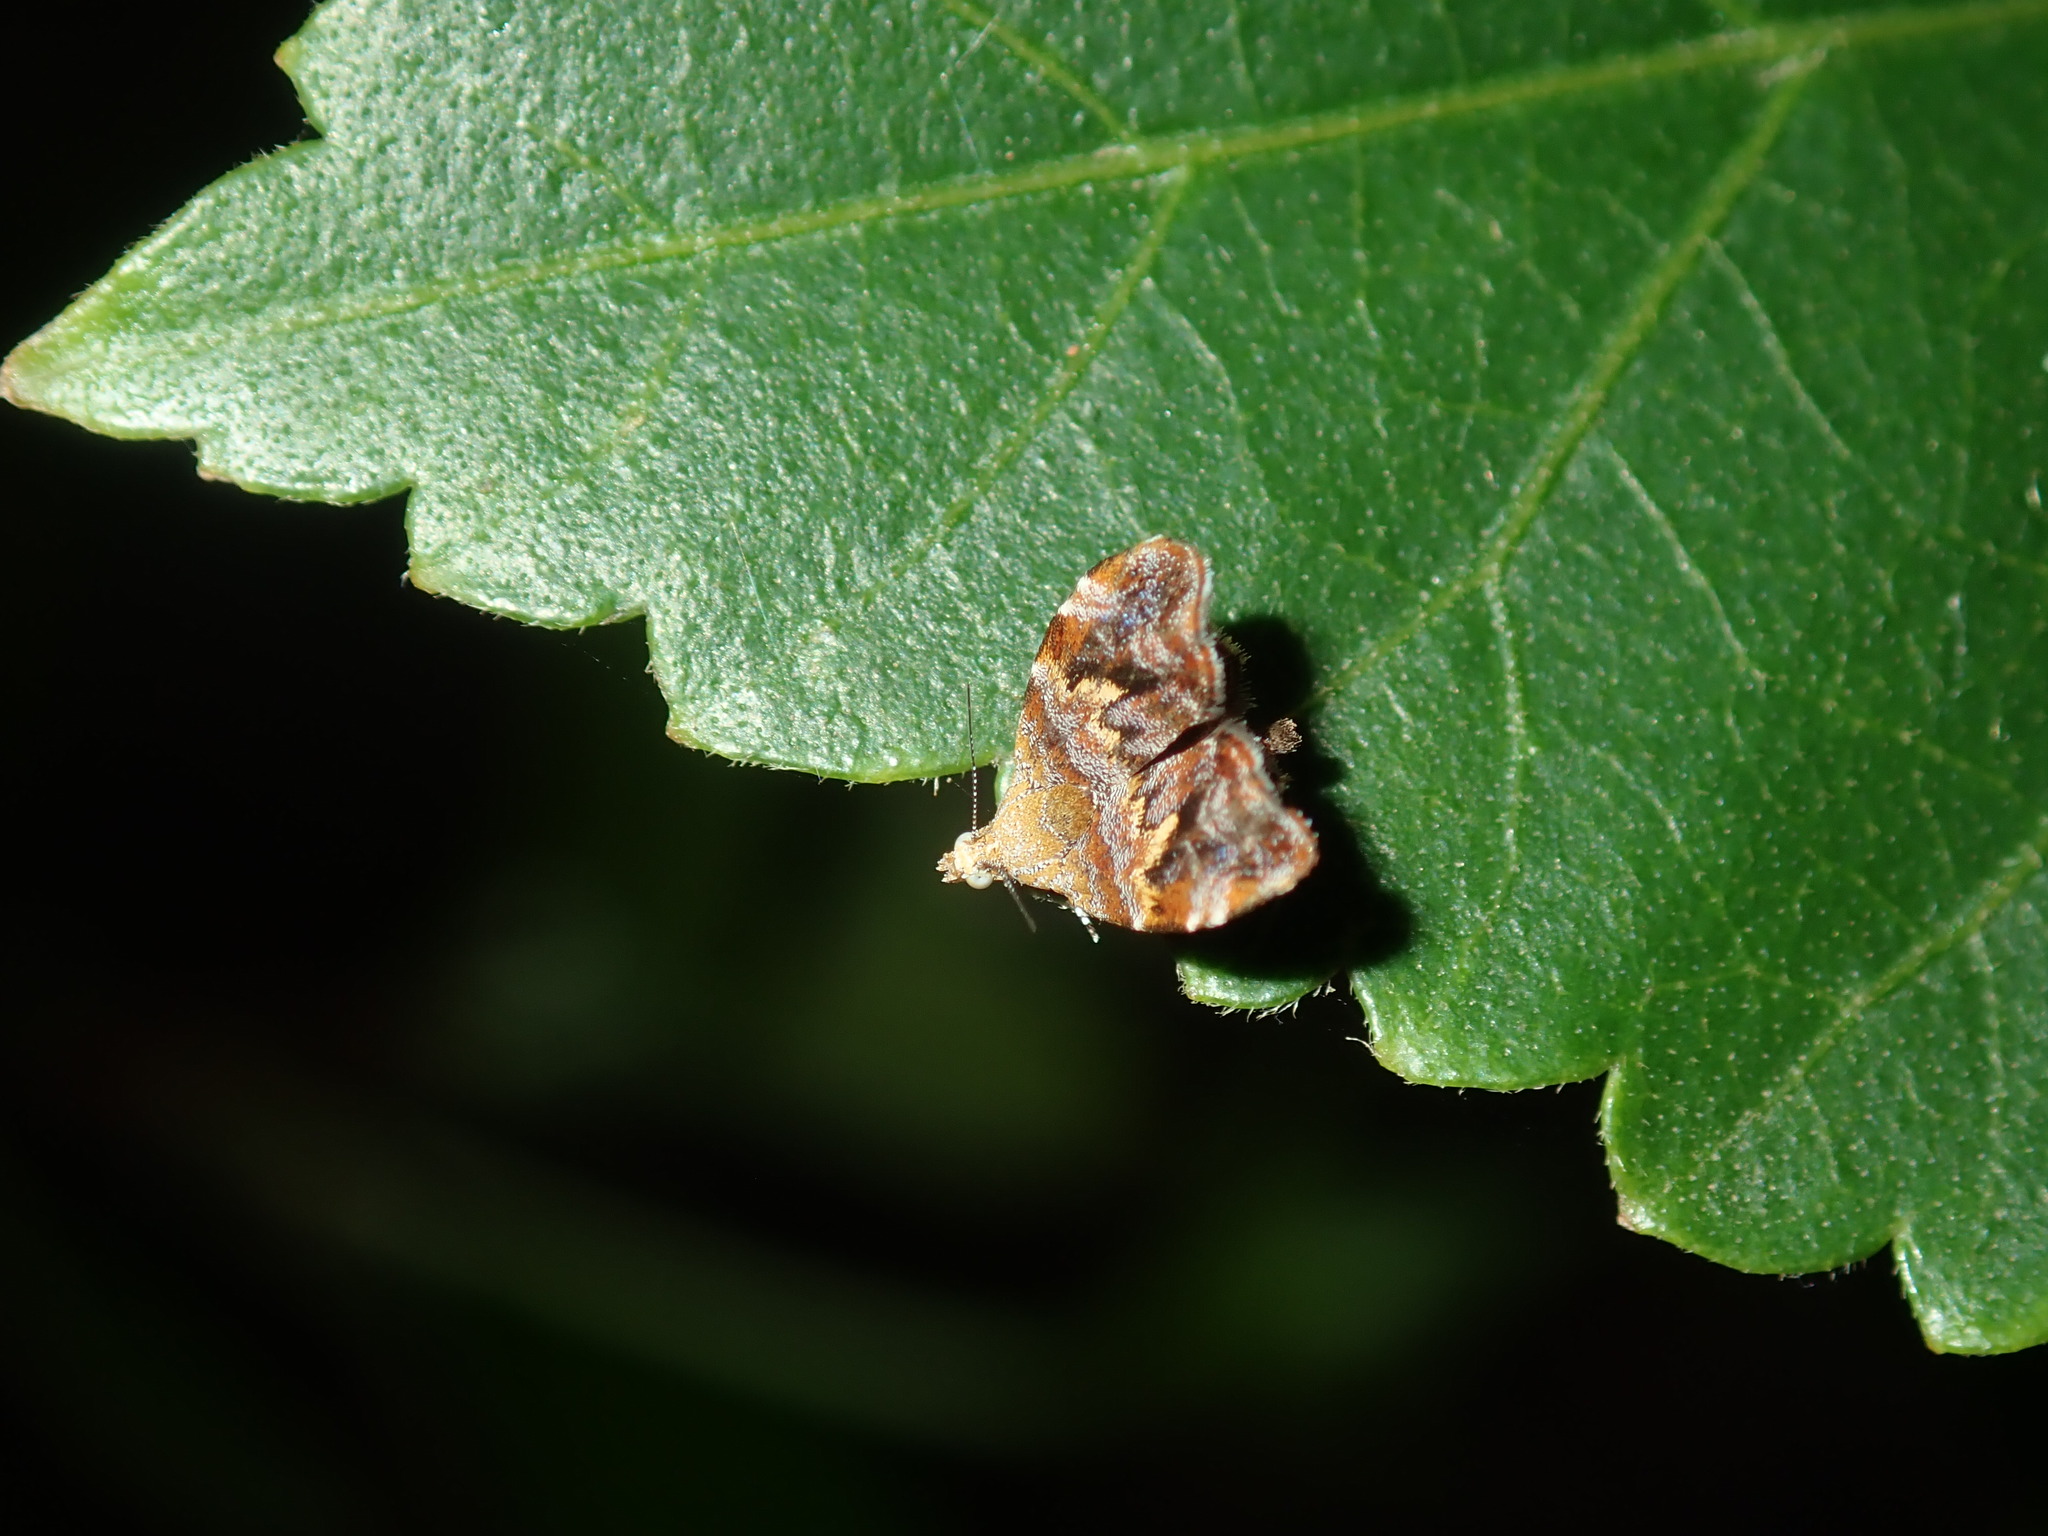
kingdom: Animalia
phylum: Arthropoda
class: Insecta
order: Lepidoptera
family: Choreutidae
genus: Choreutis
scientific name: Choreutis sexfasciella
